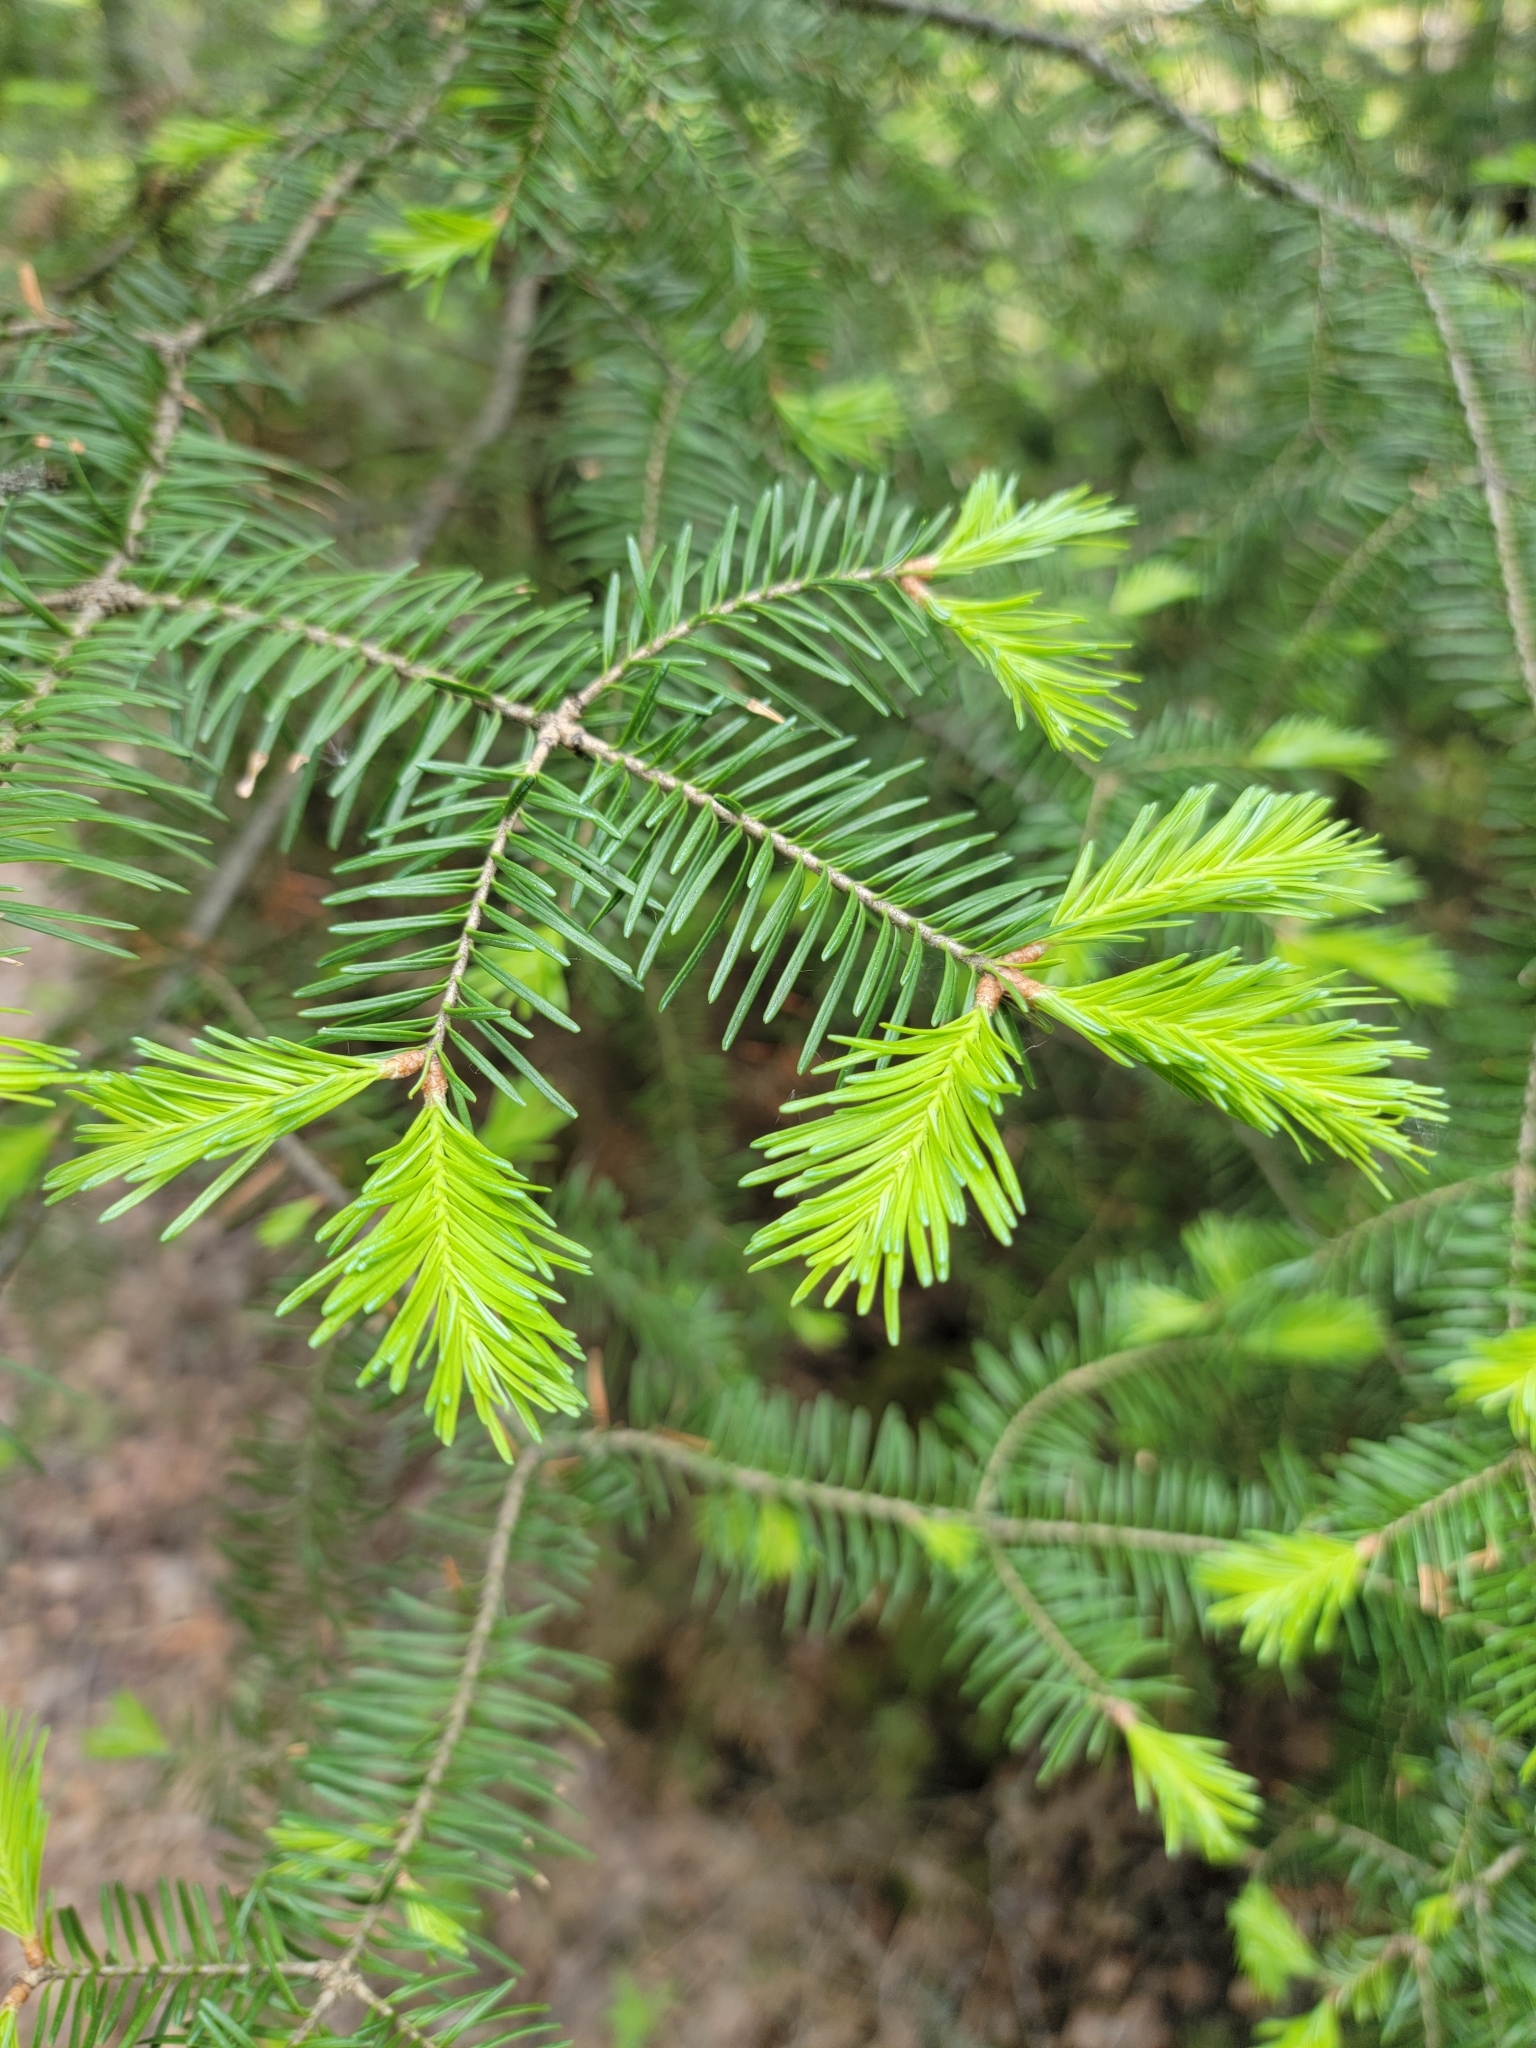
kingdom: Plantae
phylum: Tracheophyta
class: Pinopsida
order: Pinales
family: Pinaceae
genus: Abies
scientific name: Abies balsamea
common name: Balsam fir
